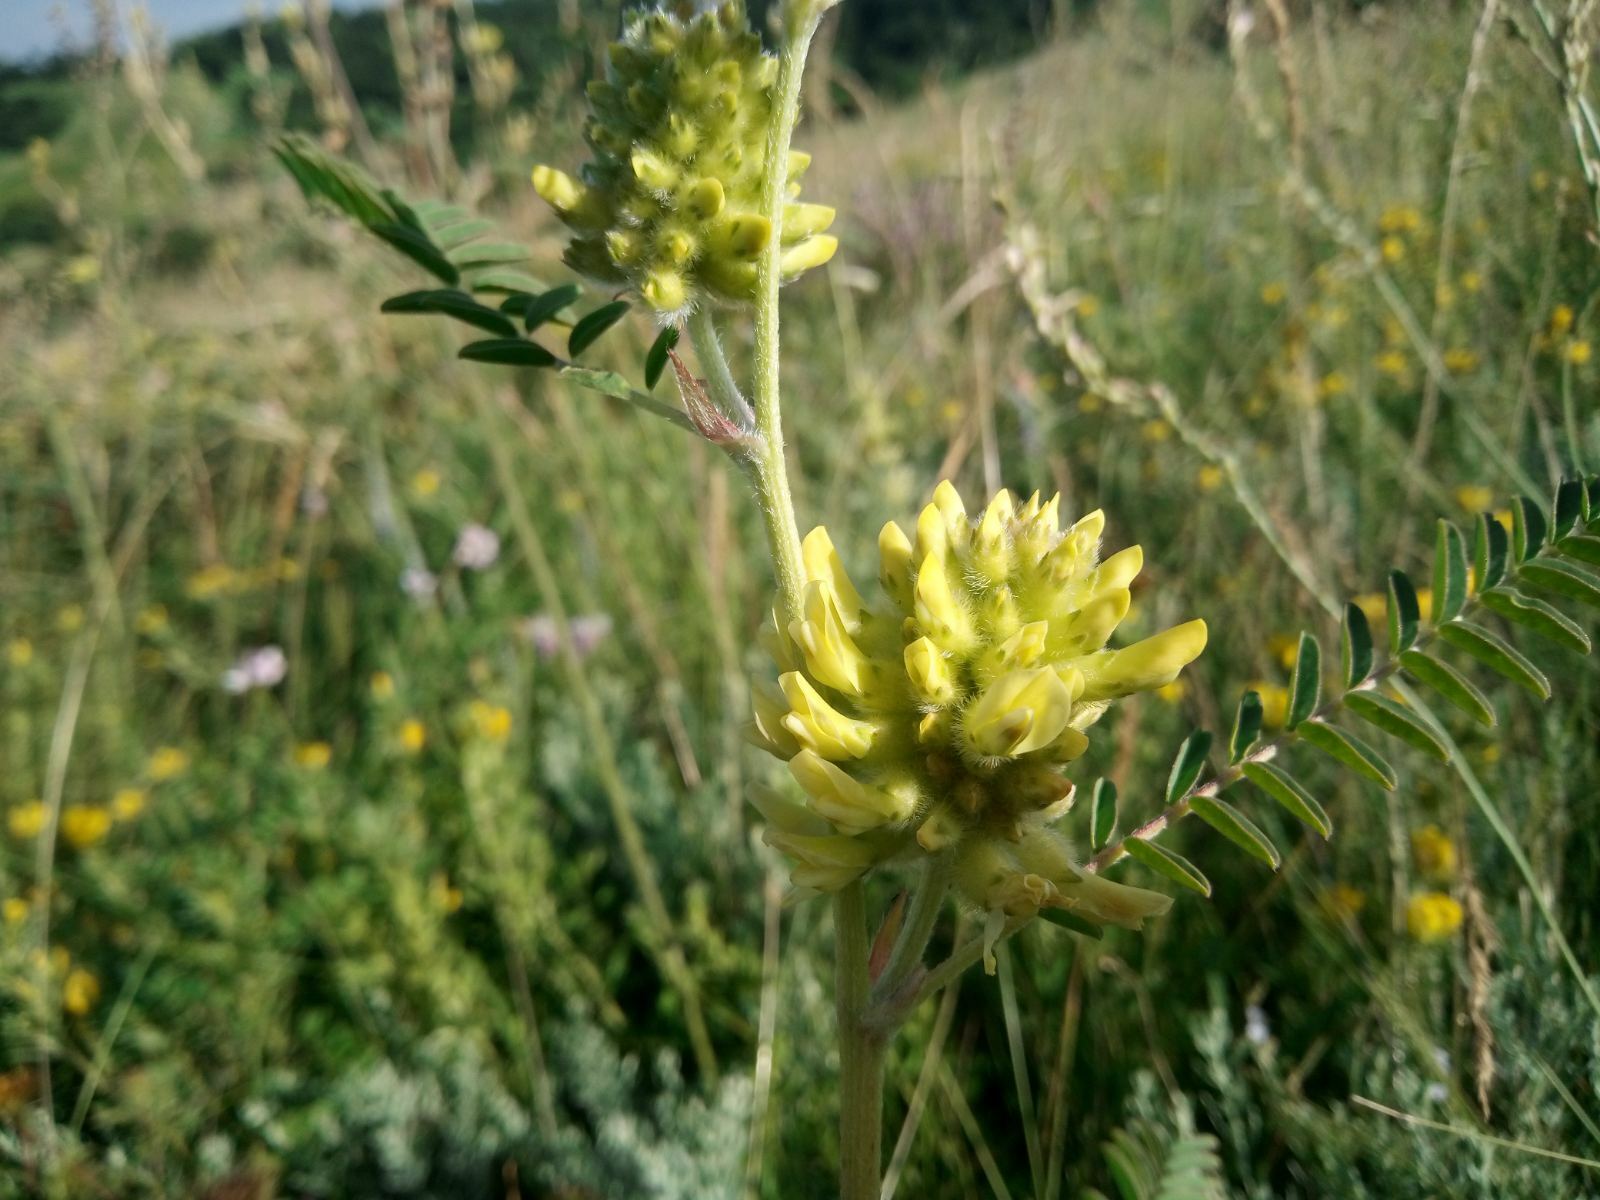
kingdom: Plantae
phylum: Tracheophyta
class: Magnoliopsida
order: Fabales
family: Fabaceae
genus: Astragalus
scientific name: Astragalus ponticus
